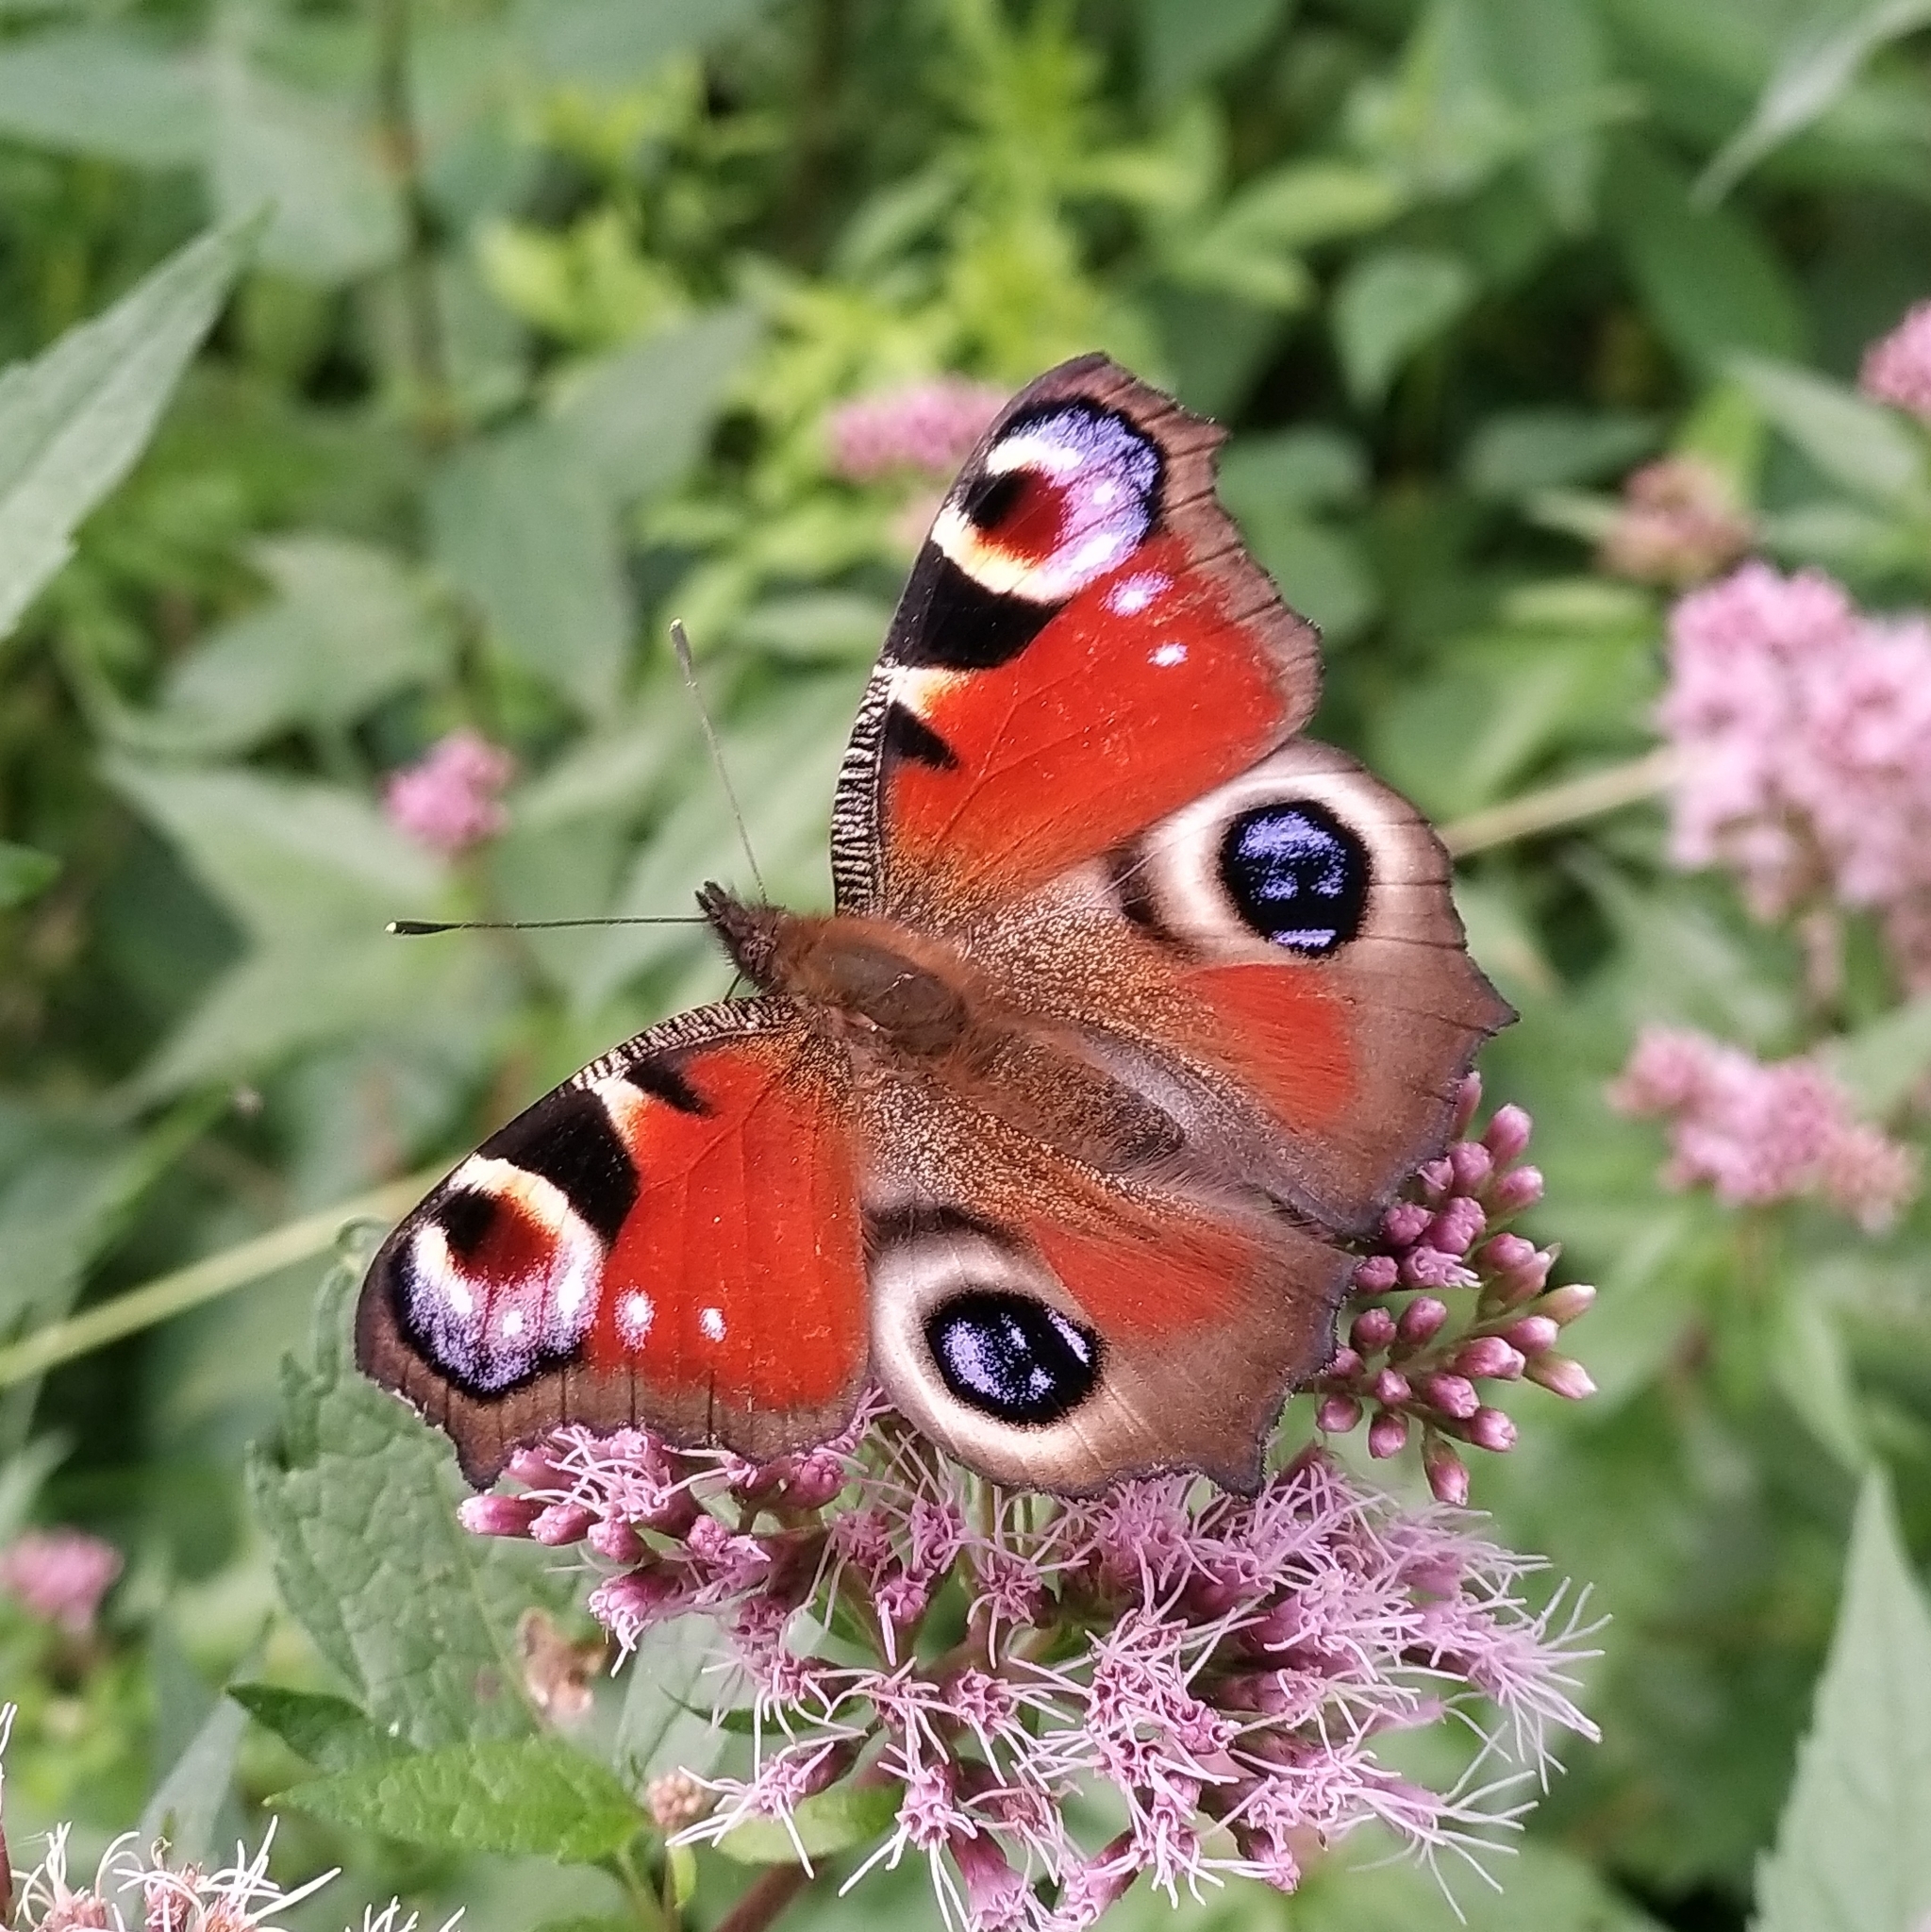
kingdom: Animalia
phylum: Arthropoda
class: Insecta
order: Lepidoptera
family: Nymphalidae
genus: Aglais
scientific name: Aglais io
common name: Peacock
